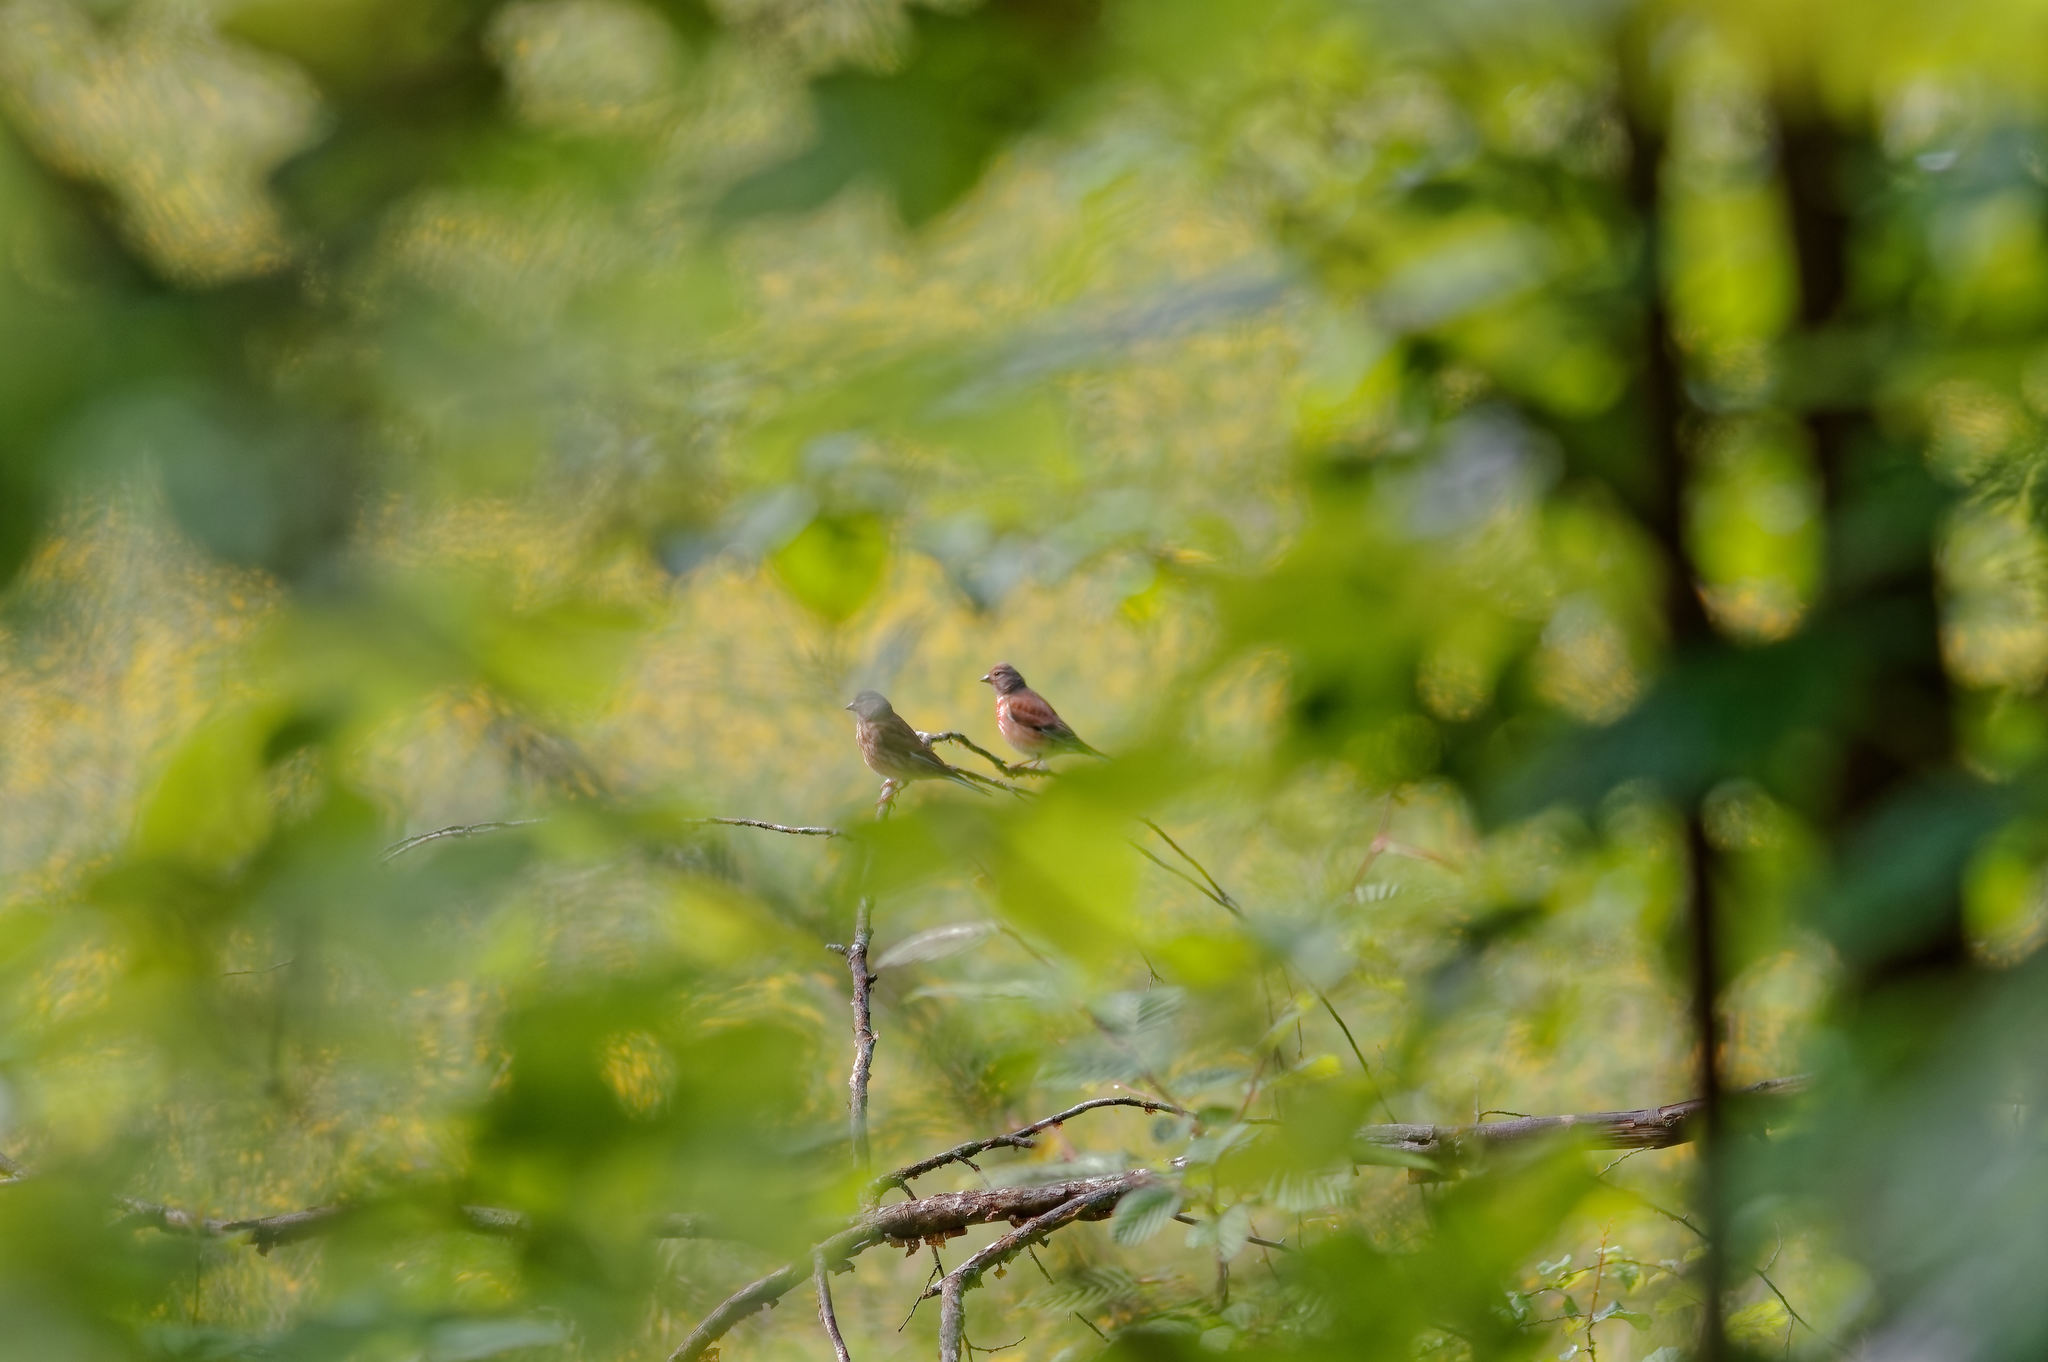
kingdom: Animalia
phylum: Chordata
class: Aves
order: Passeriformes
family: Fringillidae
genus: Linaria
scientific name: Linaria cannabina
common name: Common linnet
